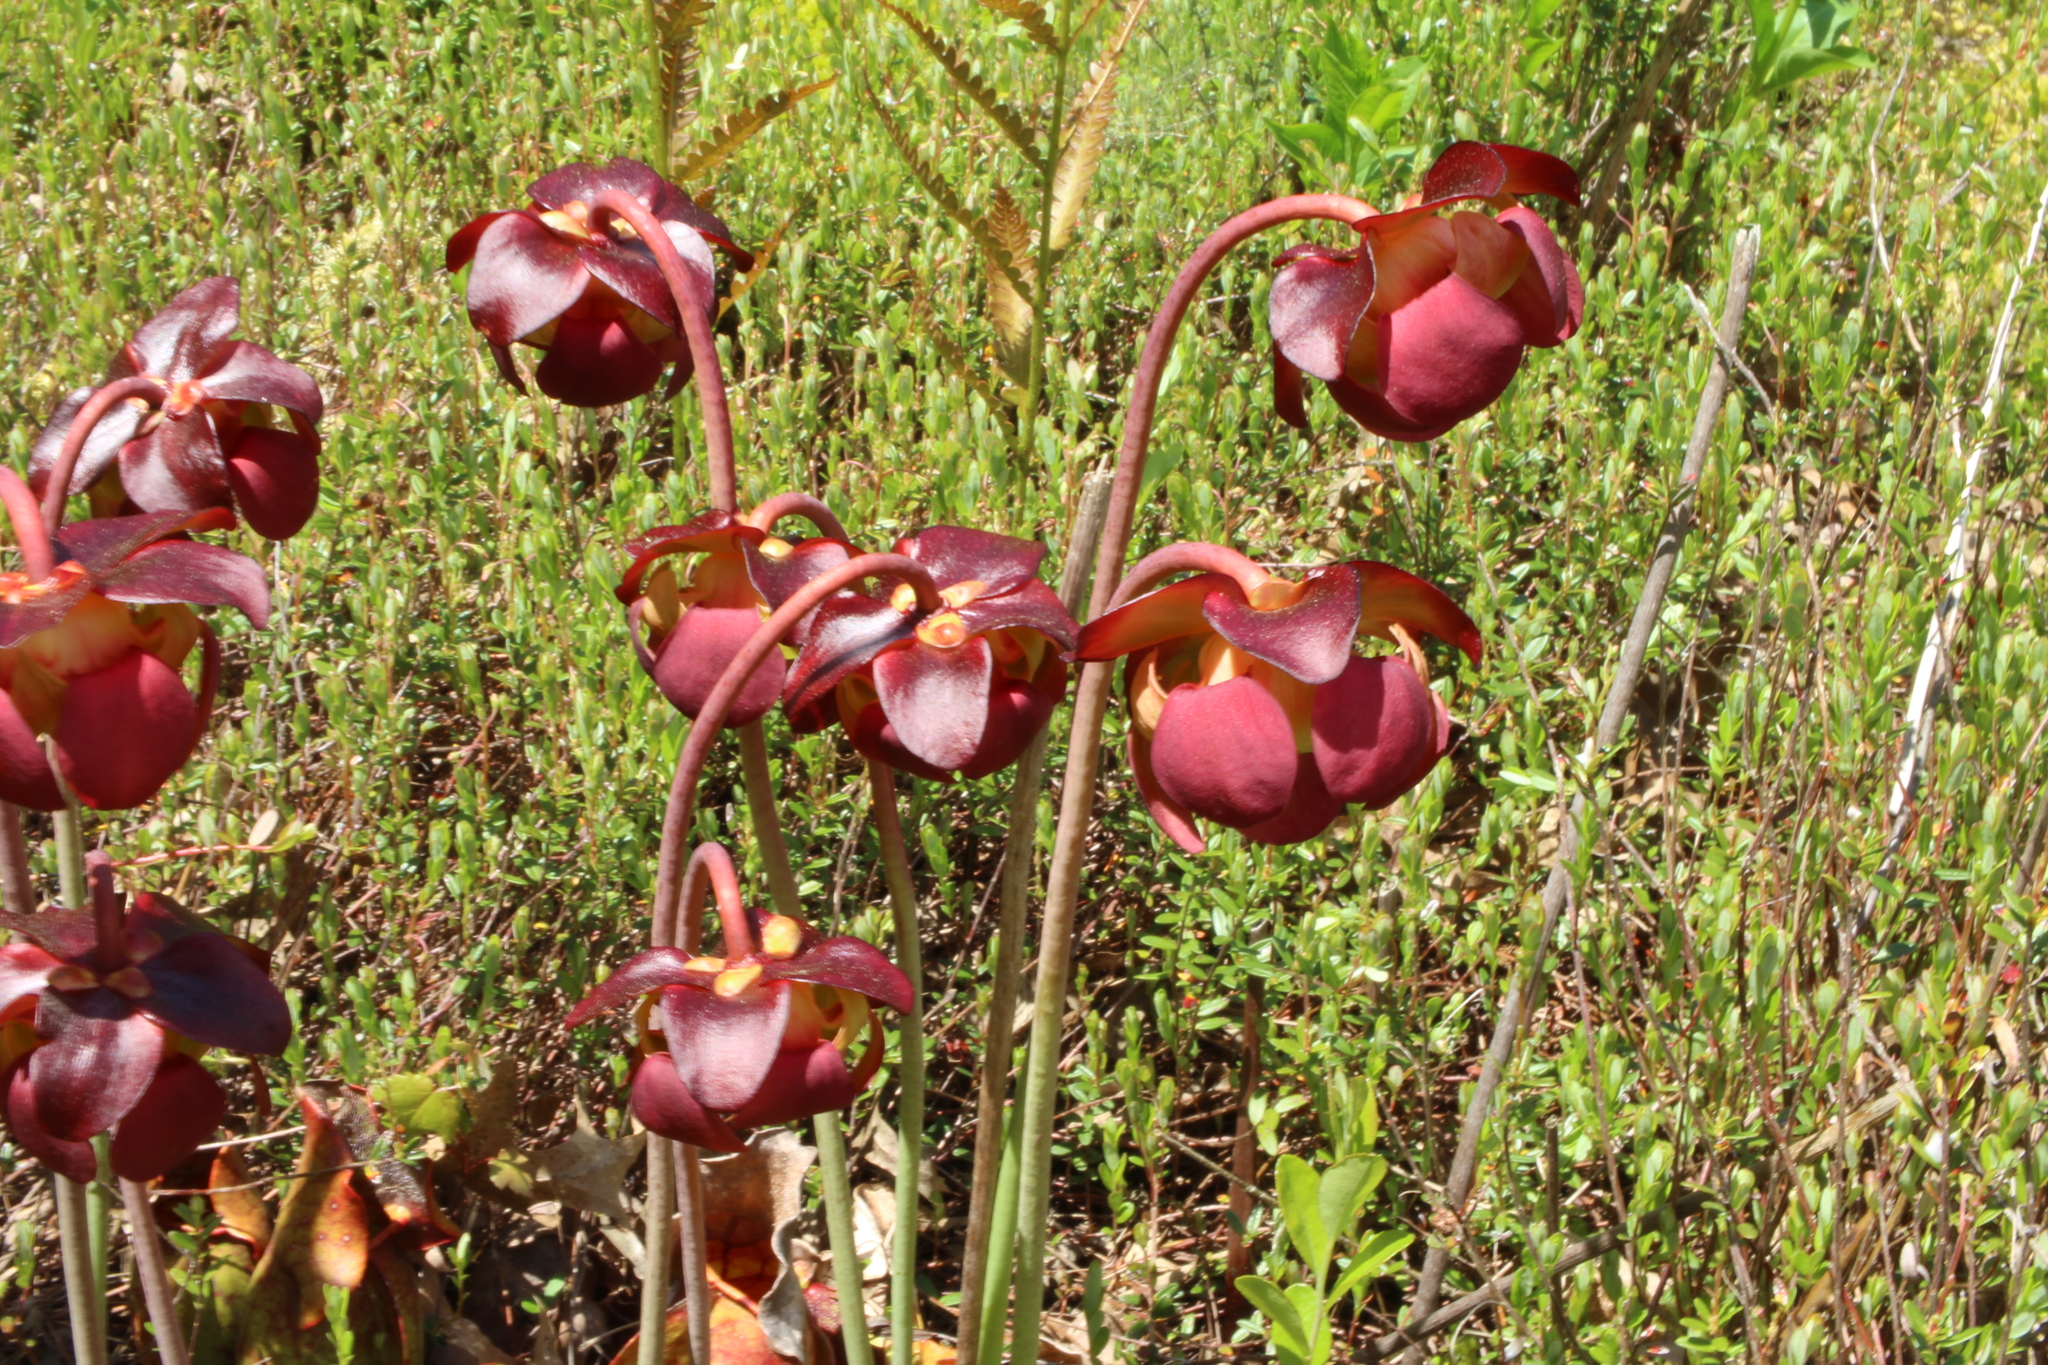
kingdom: Plantae
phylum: Tracheophyta
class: Magnoliopsida
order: Ericales
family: Sarraceniaceae
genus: Sarracenia
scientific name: Sarracenia purpurea
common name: Pitcherplant
